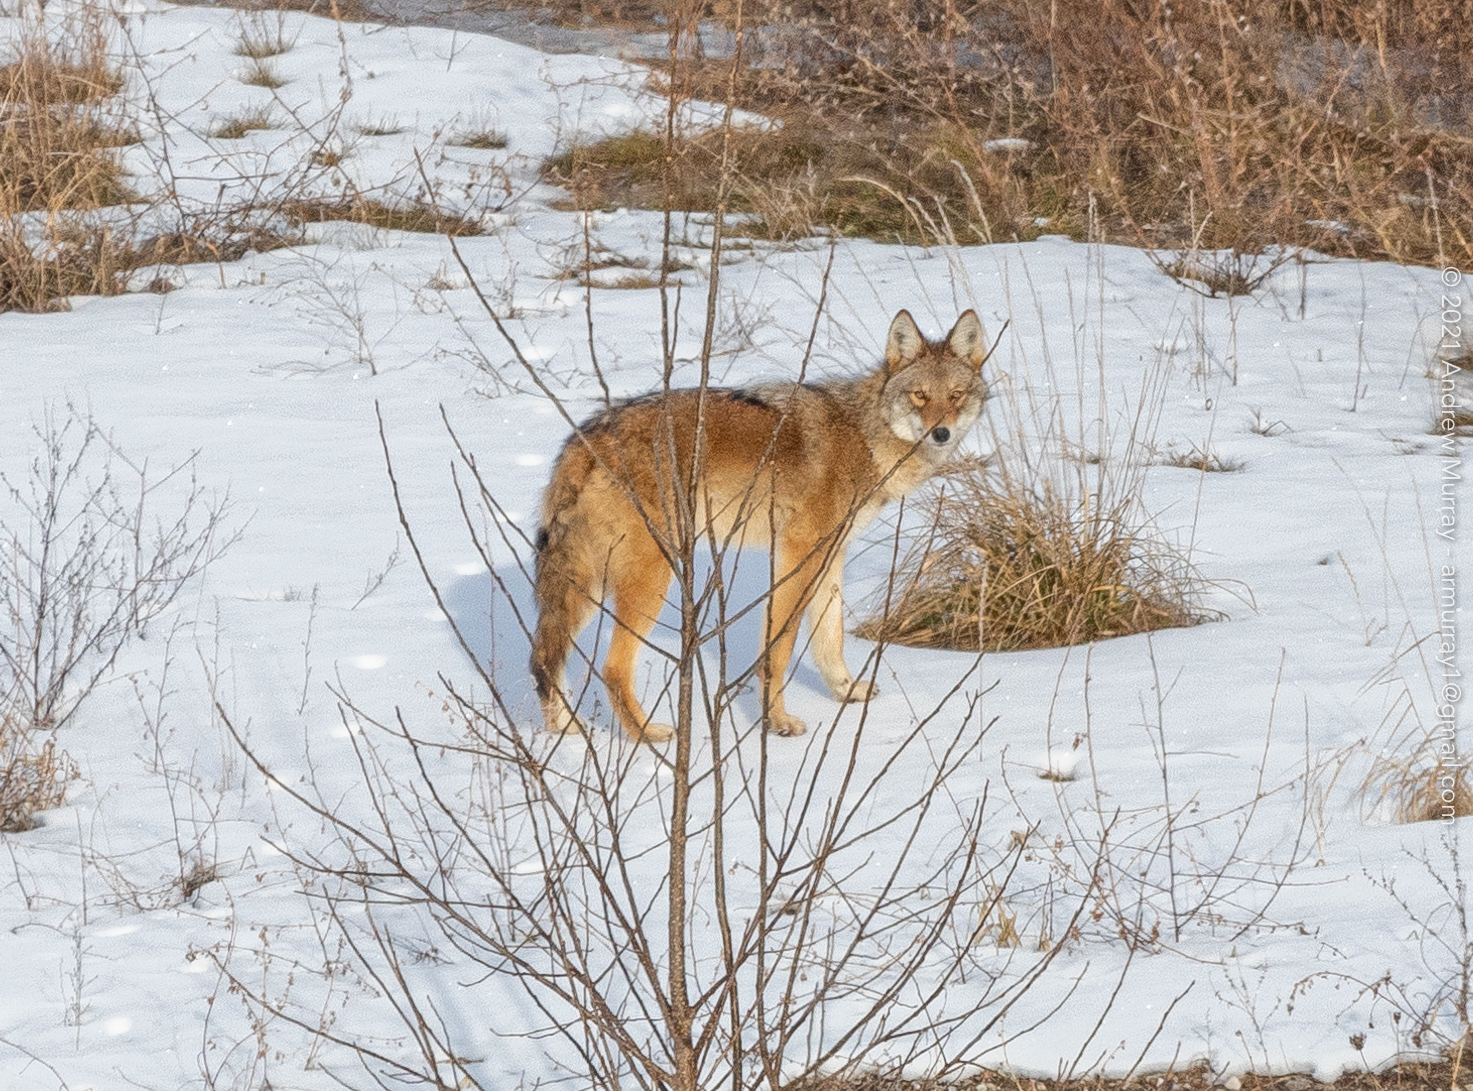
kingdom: Animalia
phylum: Chordata
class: Mammalia
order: Carnivora
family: Canidae
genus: Canis
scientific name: Canis latrans
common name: Coyote
